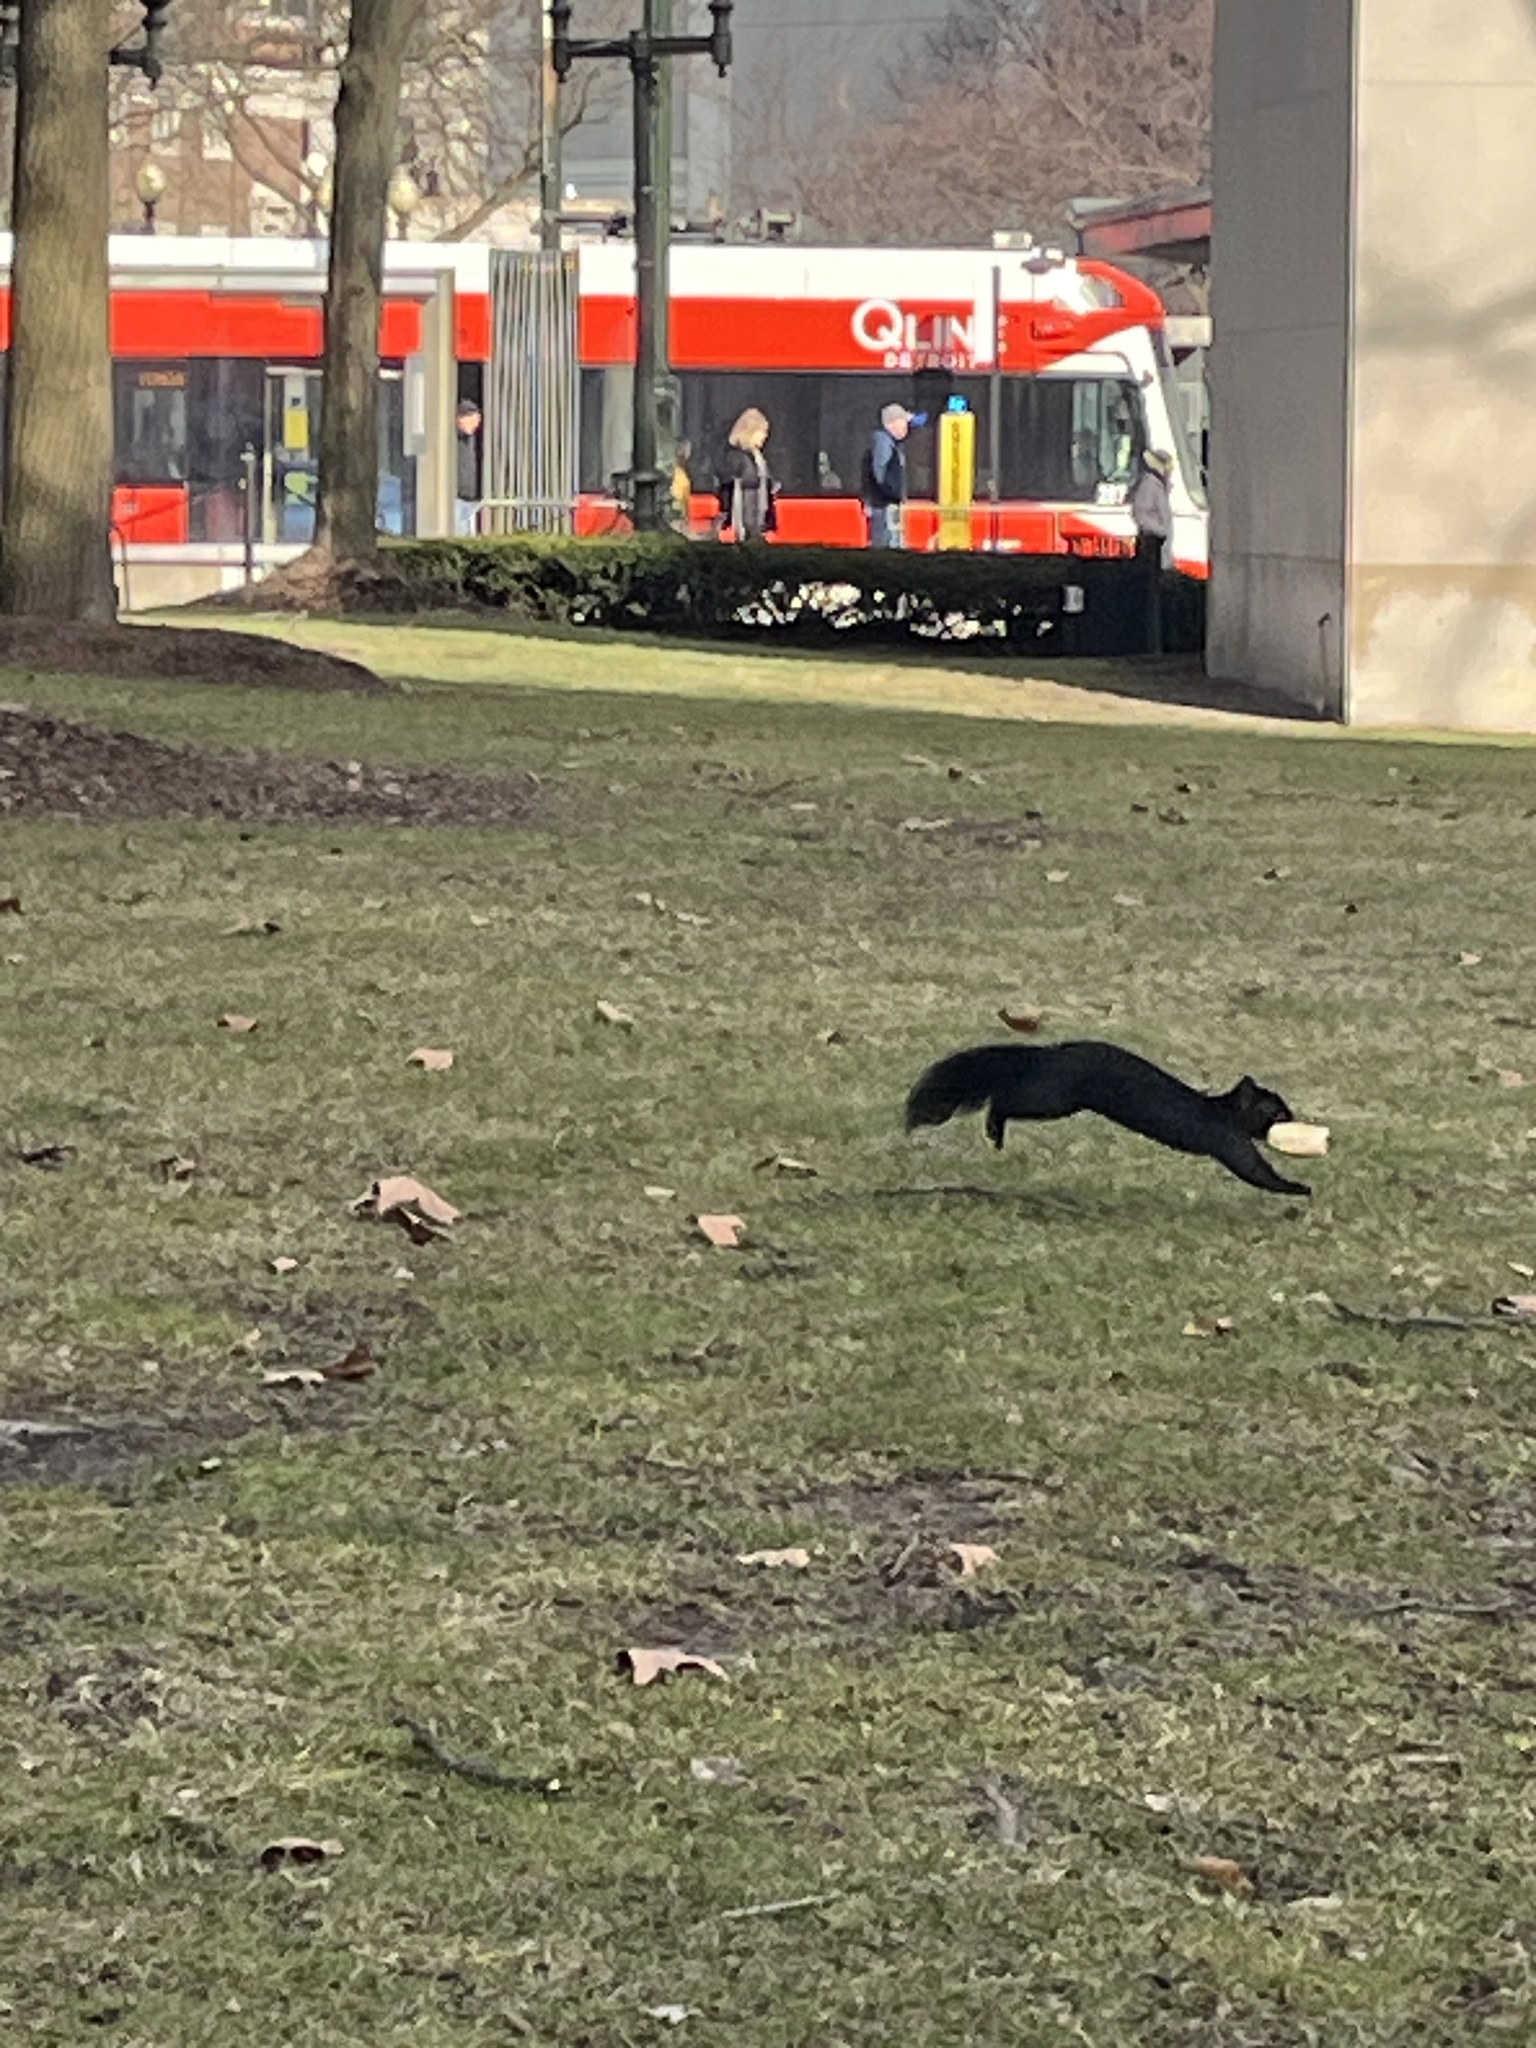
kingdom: Animalia
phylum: Chordata
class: Mammalia
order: Rodentia
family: Sciuridae
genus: Sciurus
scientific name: Sciurus carolinensis
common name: Eastern gray squirrel
